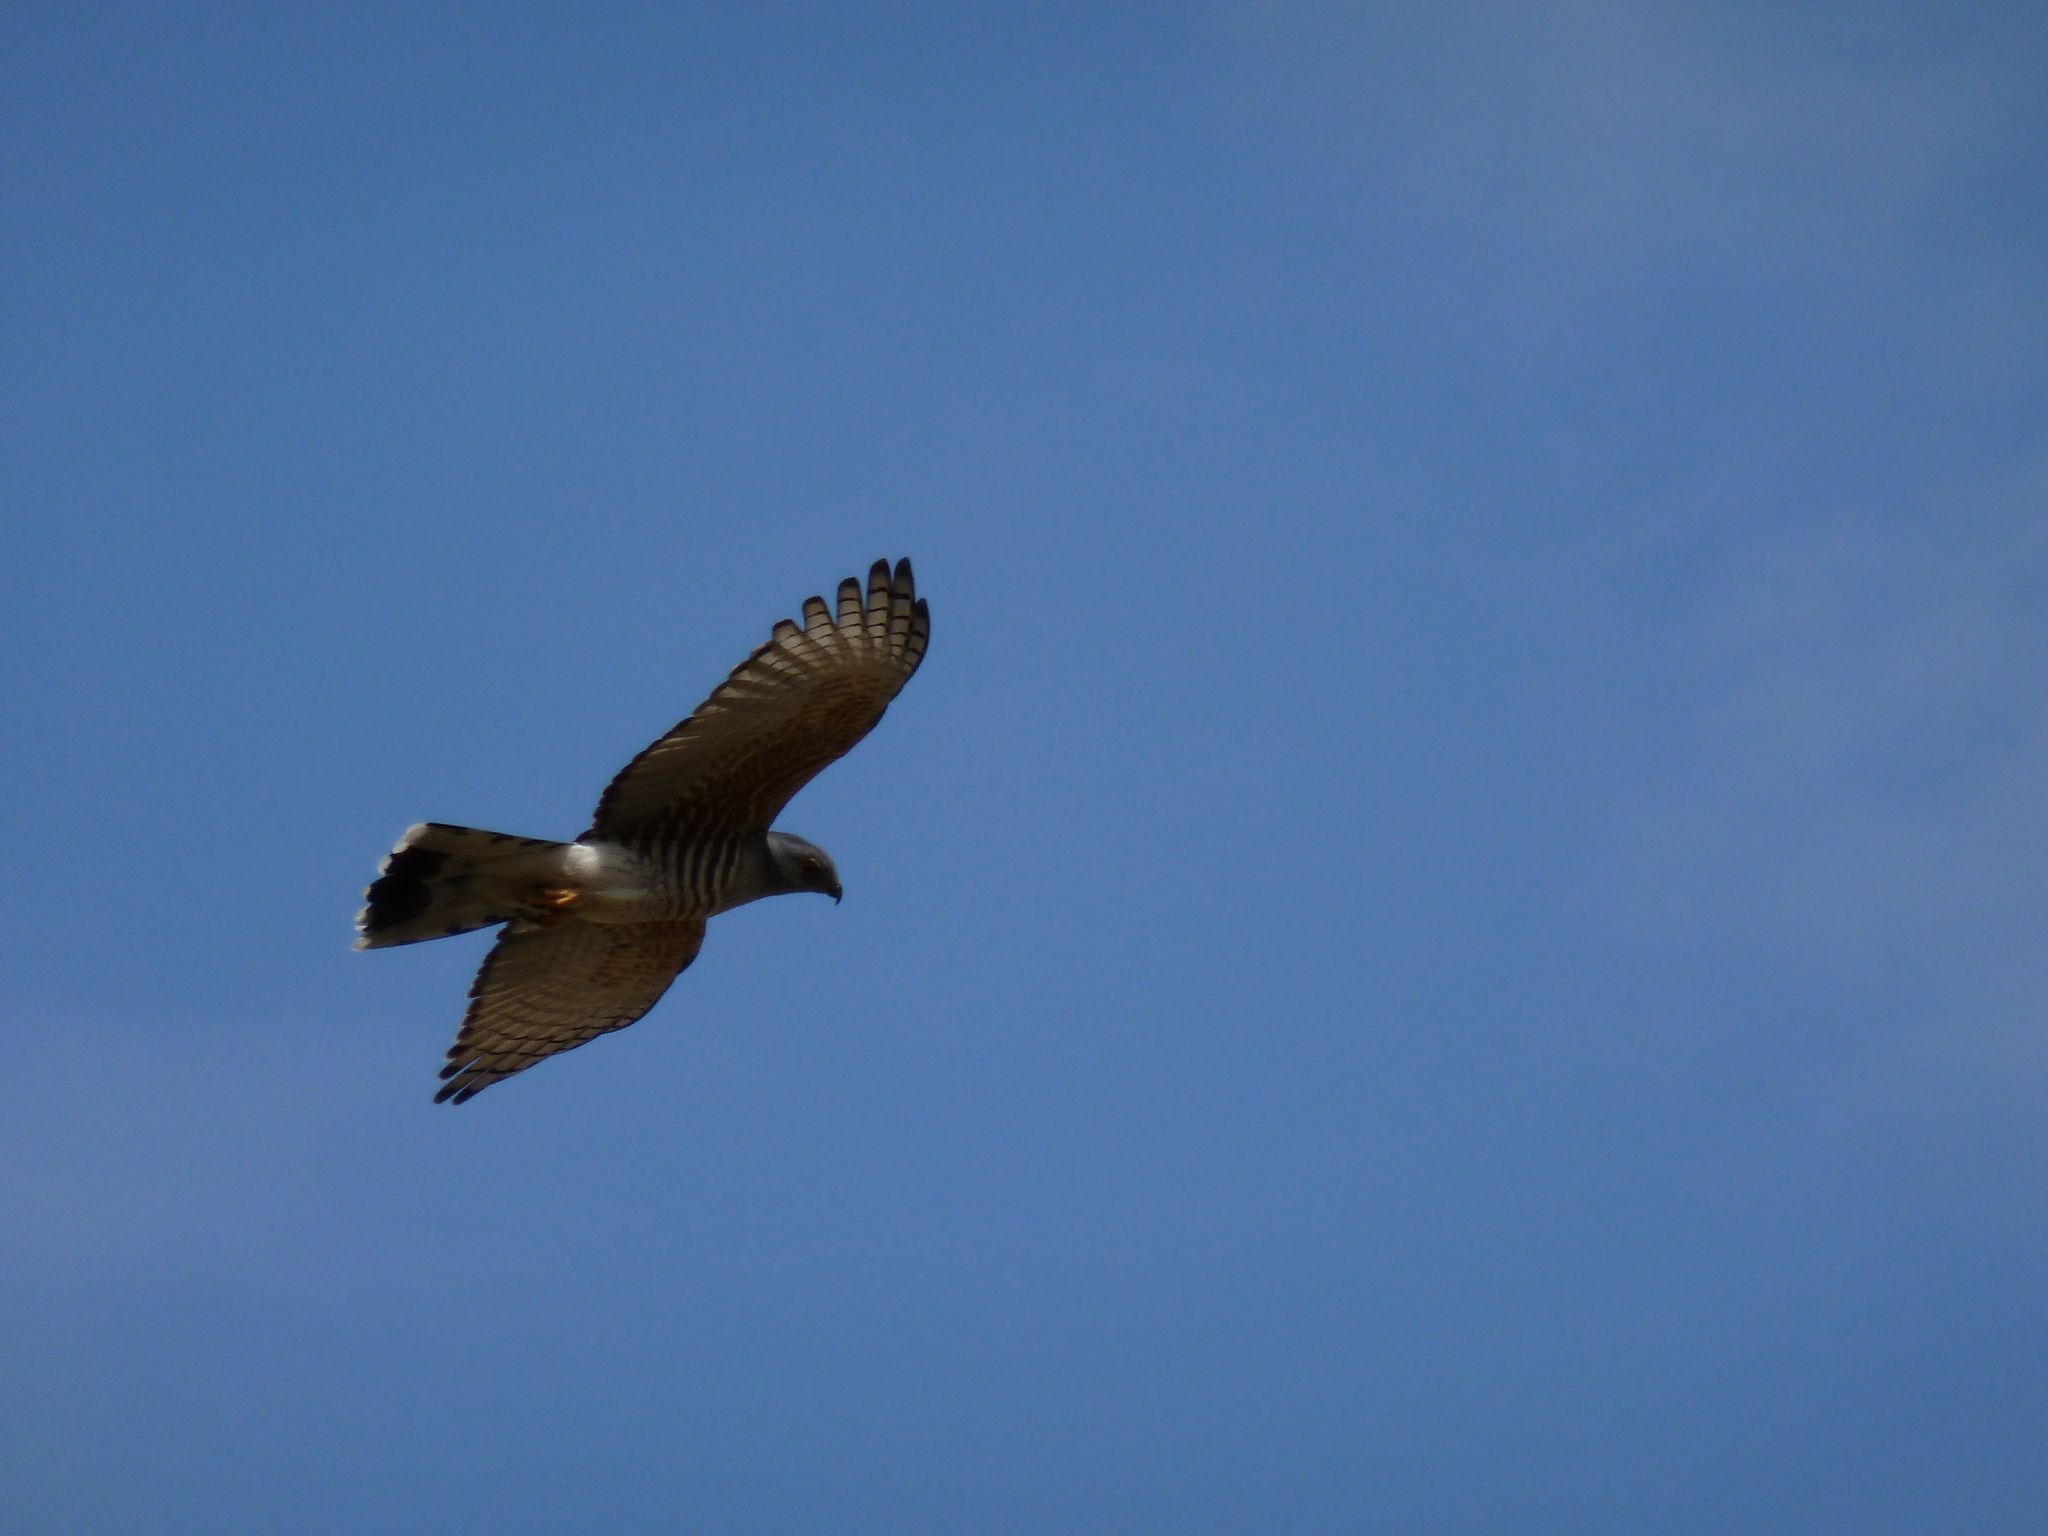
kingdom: Animalia
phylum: Chordata
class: Aves
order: Accipitriformes
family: Accipitridae
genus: Aviceda
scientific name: Aviceda cuculoides
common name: African cuckoo-hawk
